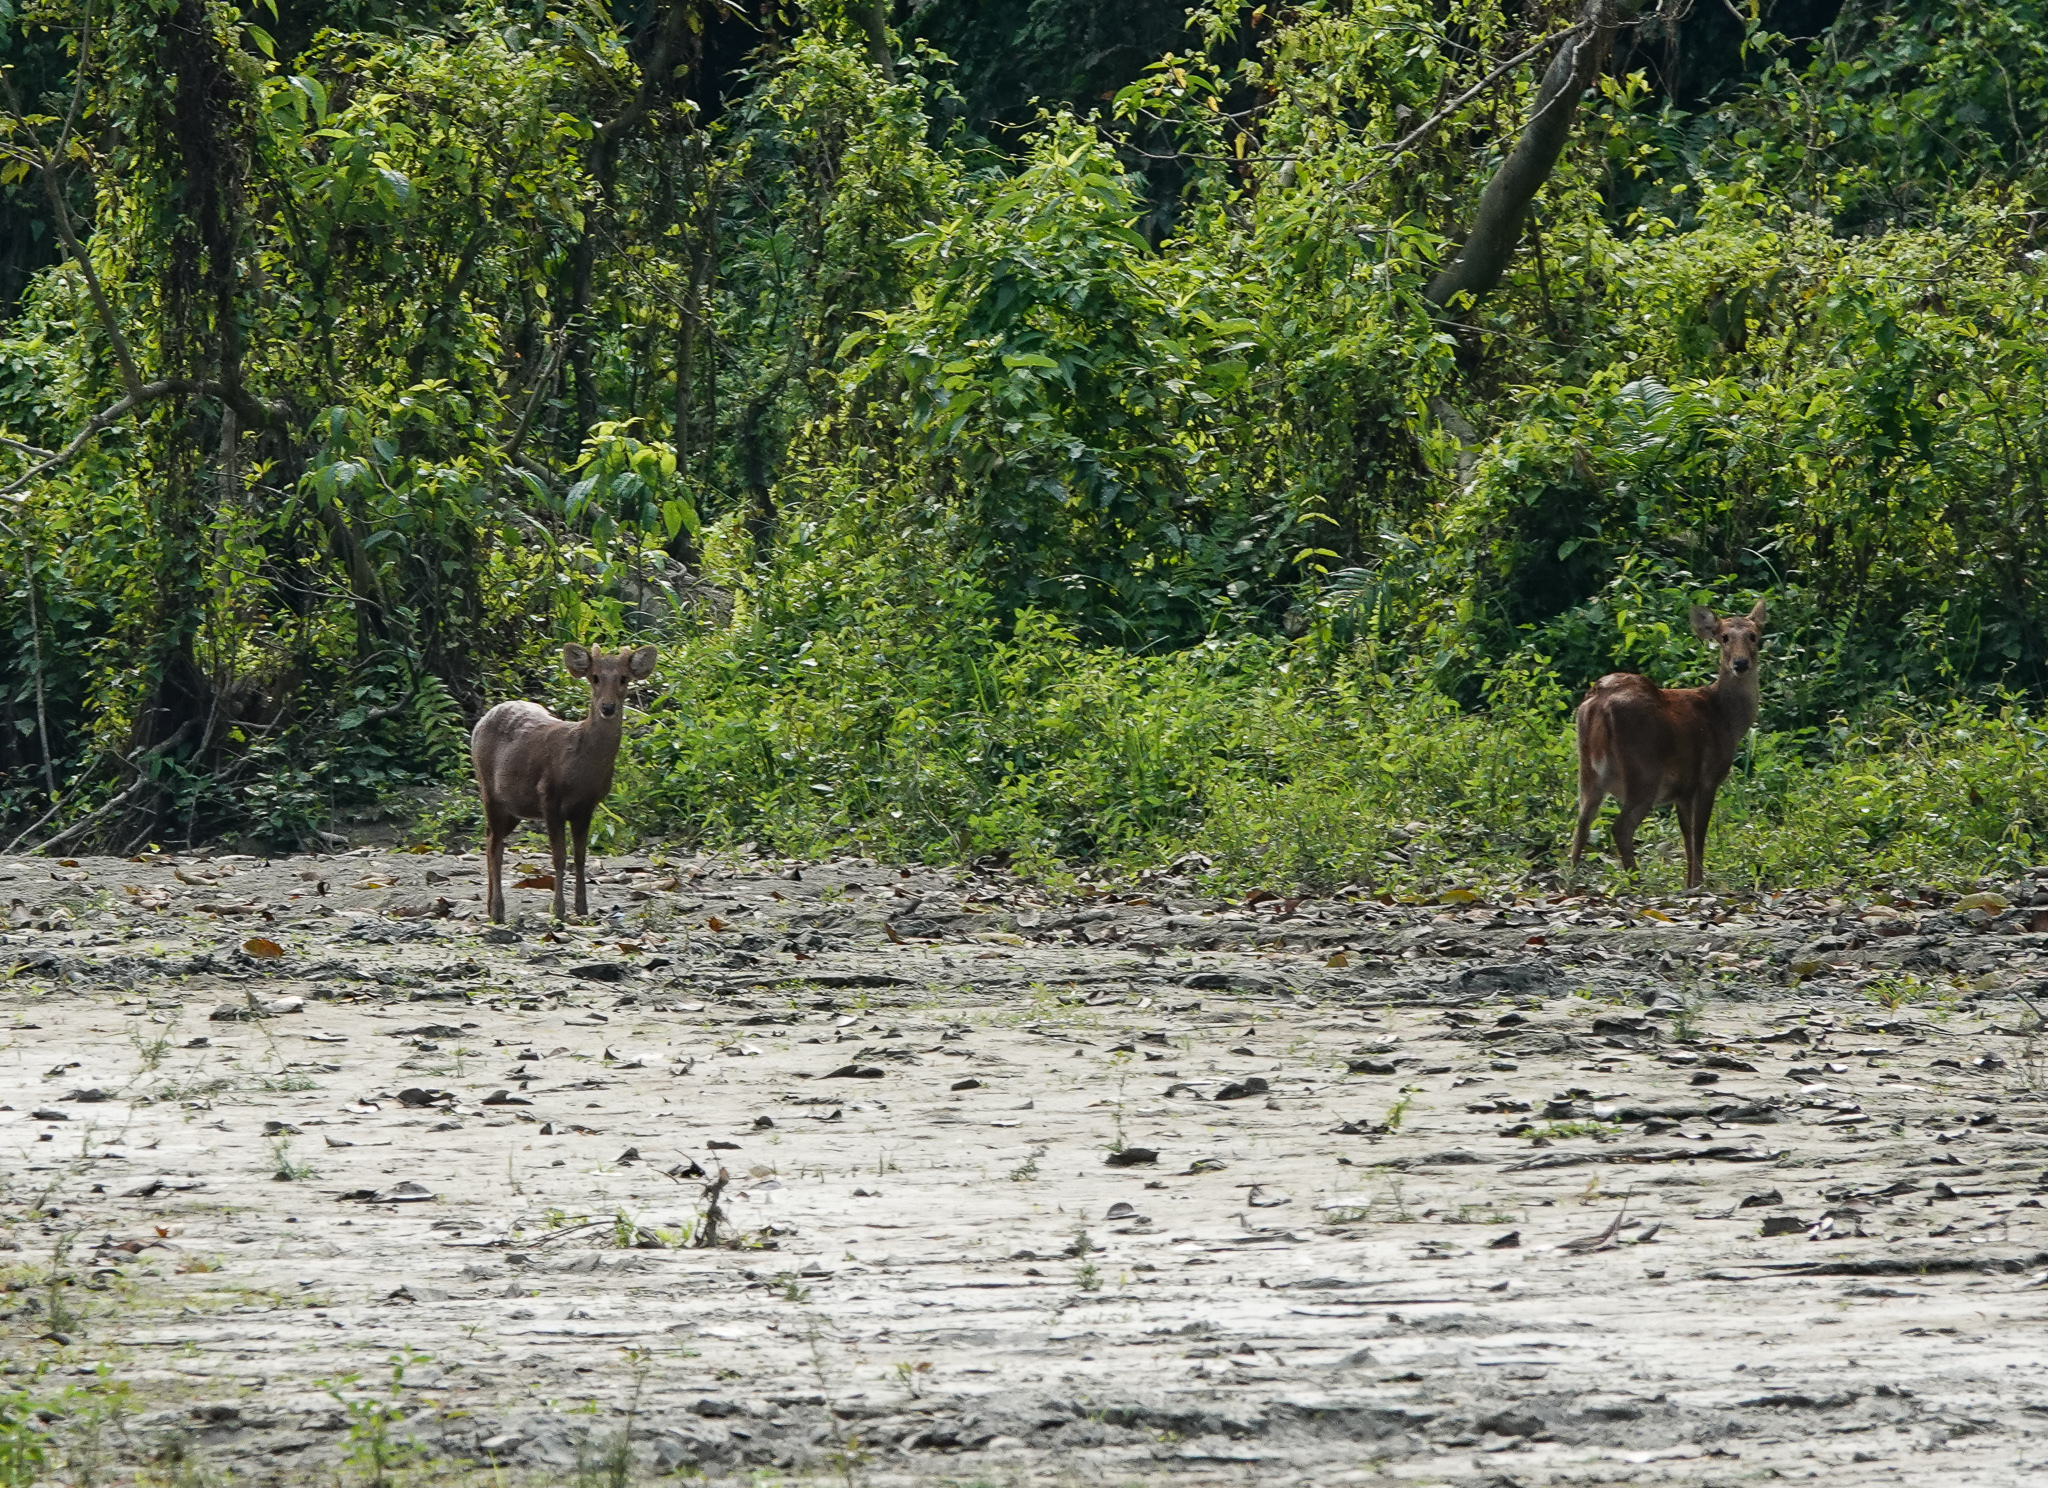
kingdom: Animalia
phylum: Chordata
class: Mammalia
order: Artiodactyla
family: Cervidae
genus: Rusa
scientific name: Rusa unicolor
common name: Sambar
